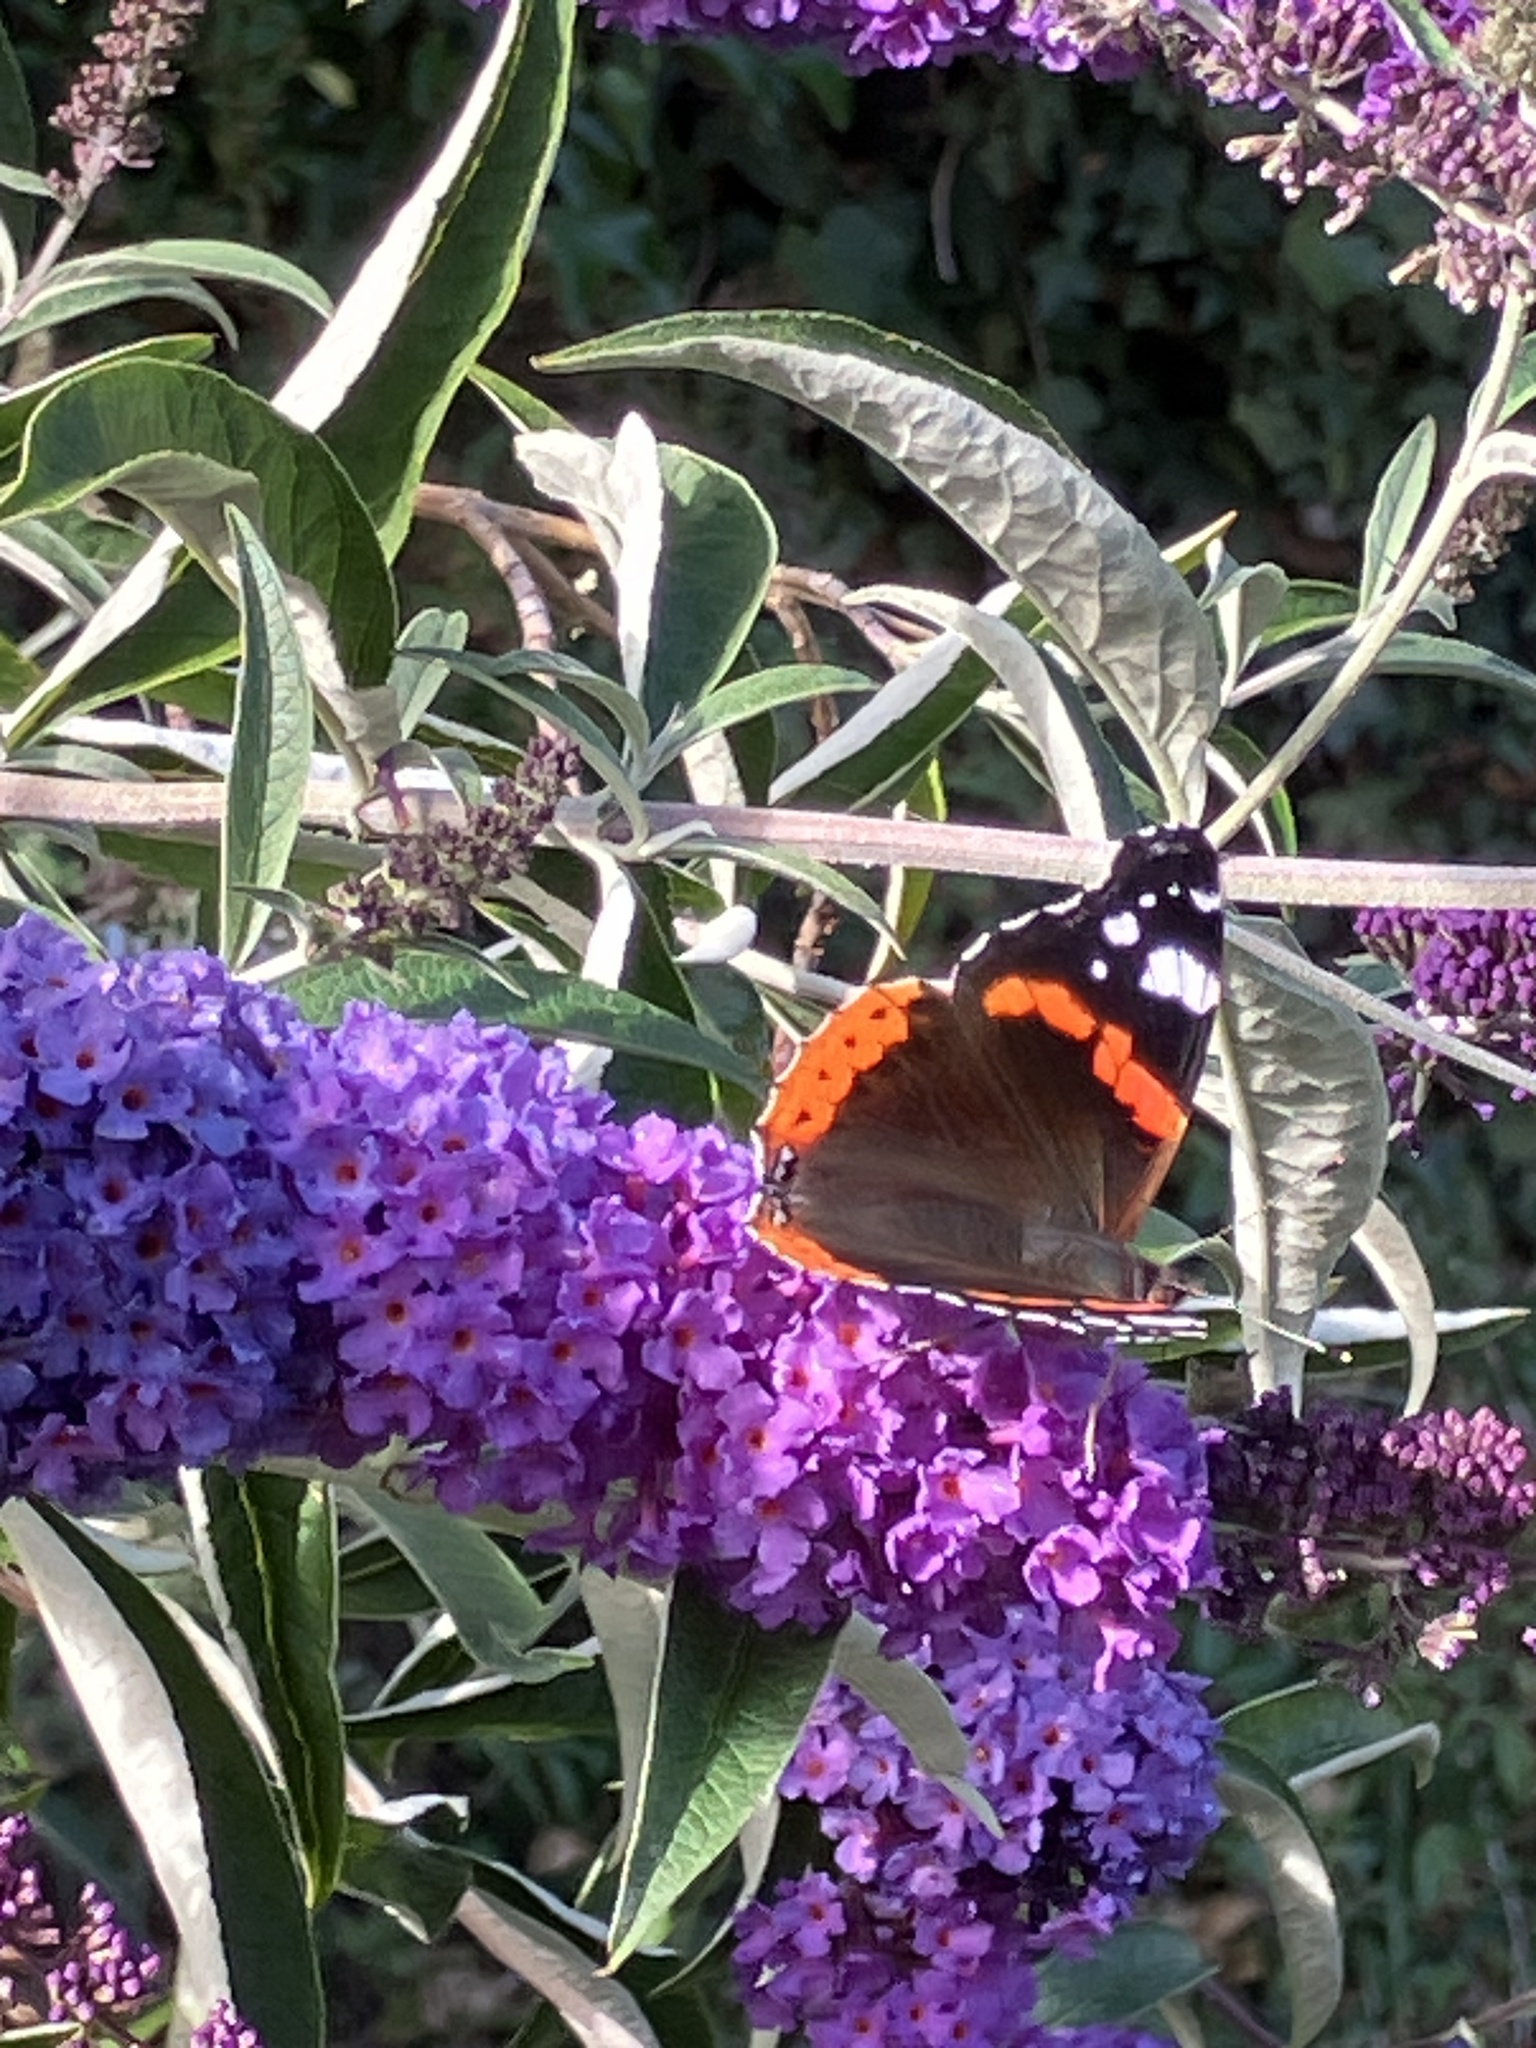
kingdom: Animalia
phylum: Arthropoda
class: Insecta
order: Lepidoptera
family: Nymphalidae
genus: Vanessa
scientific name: Vanessa atalanta
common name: Red admiral
